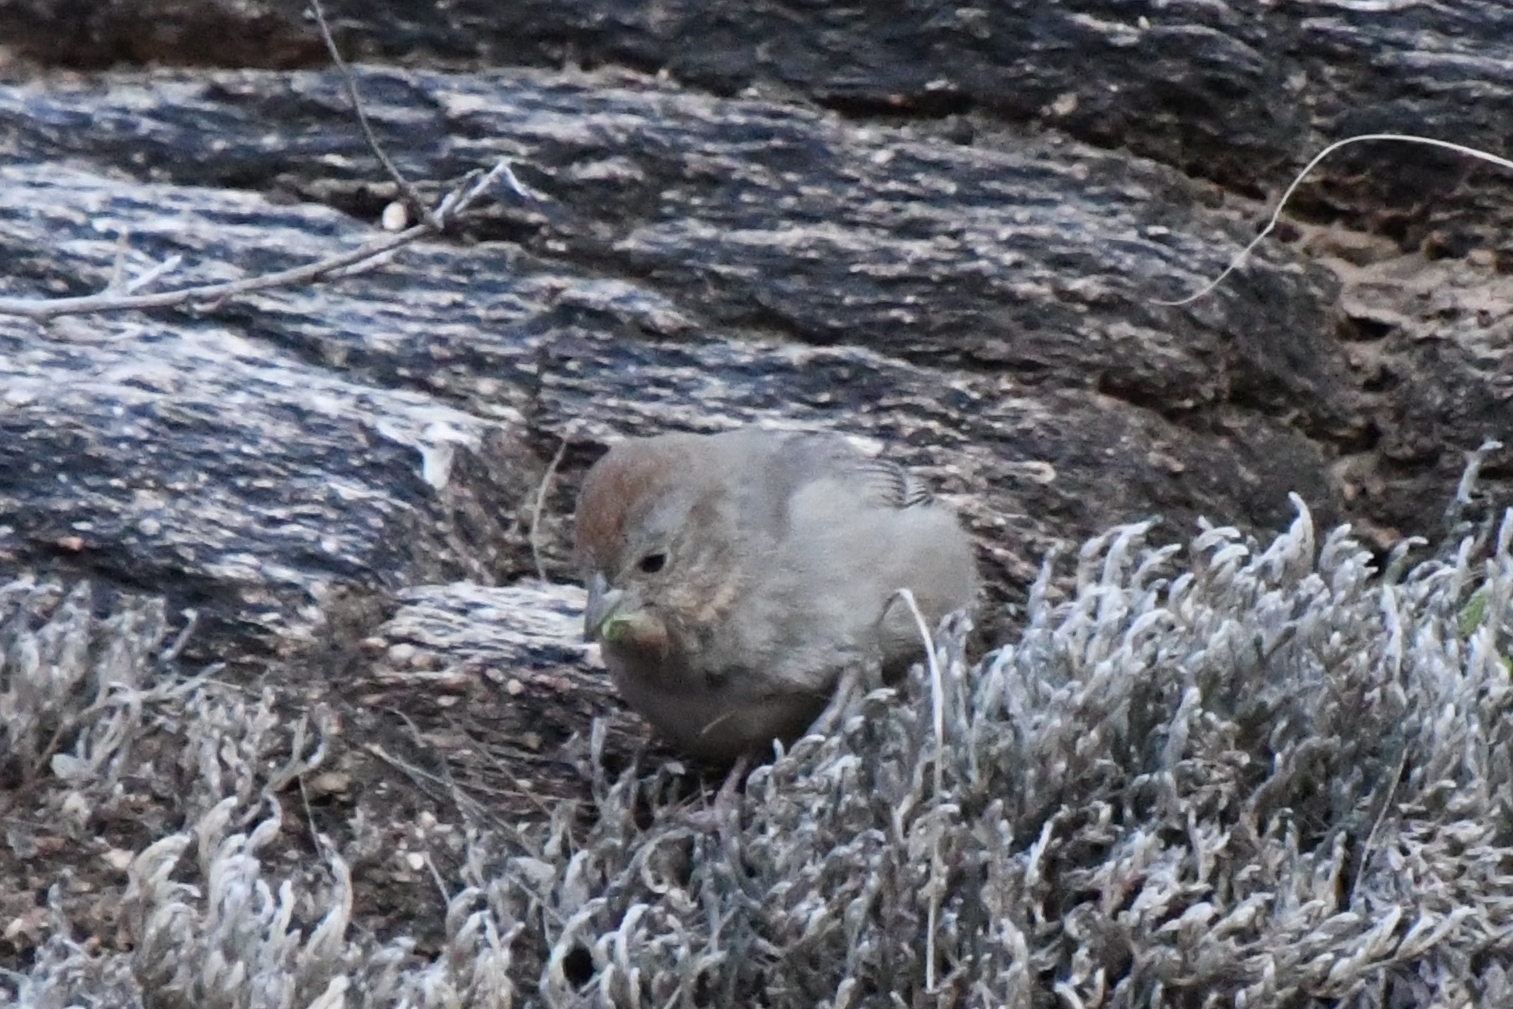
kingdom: Animalia
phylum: Chordata
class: Aves
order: Passeriformes
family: Passerellidae
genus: Melozone
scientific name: Melozone fusca
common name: Canyon towhee
